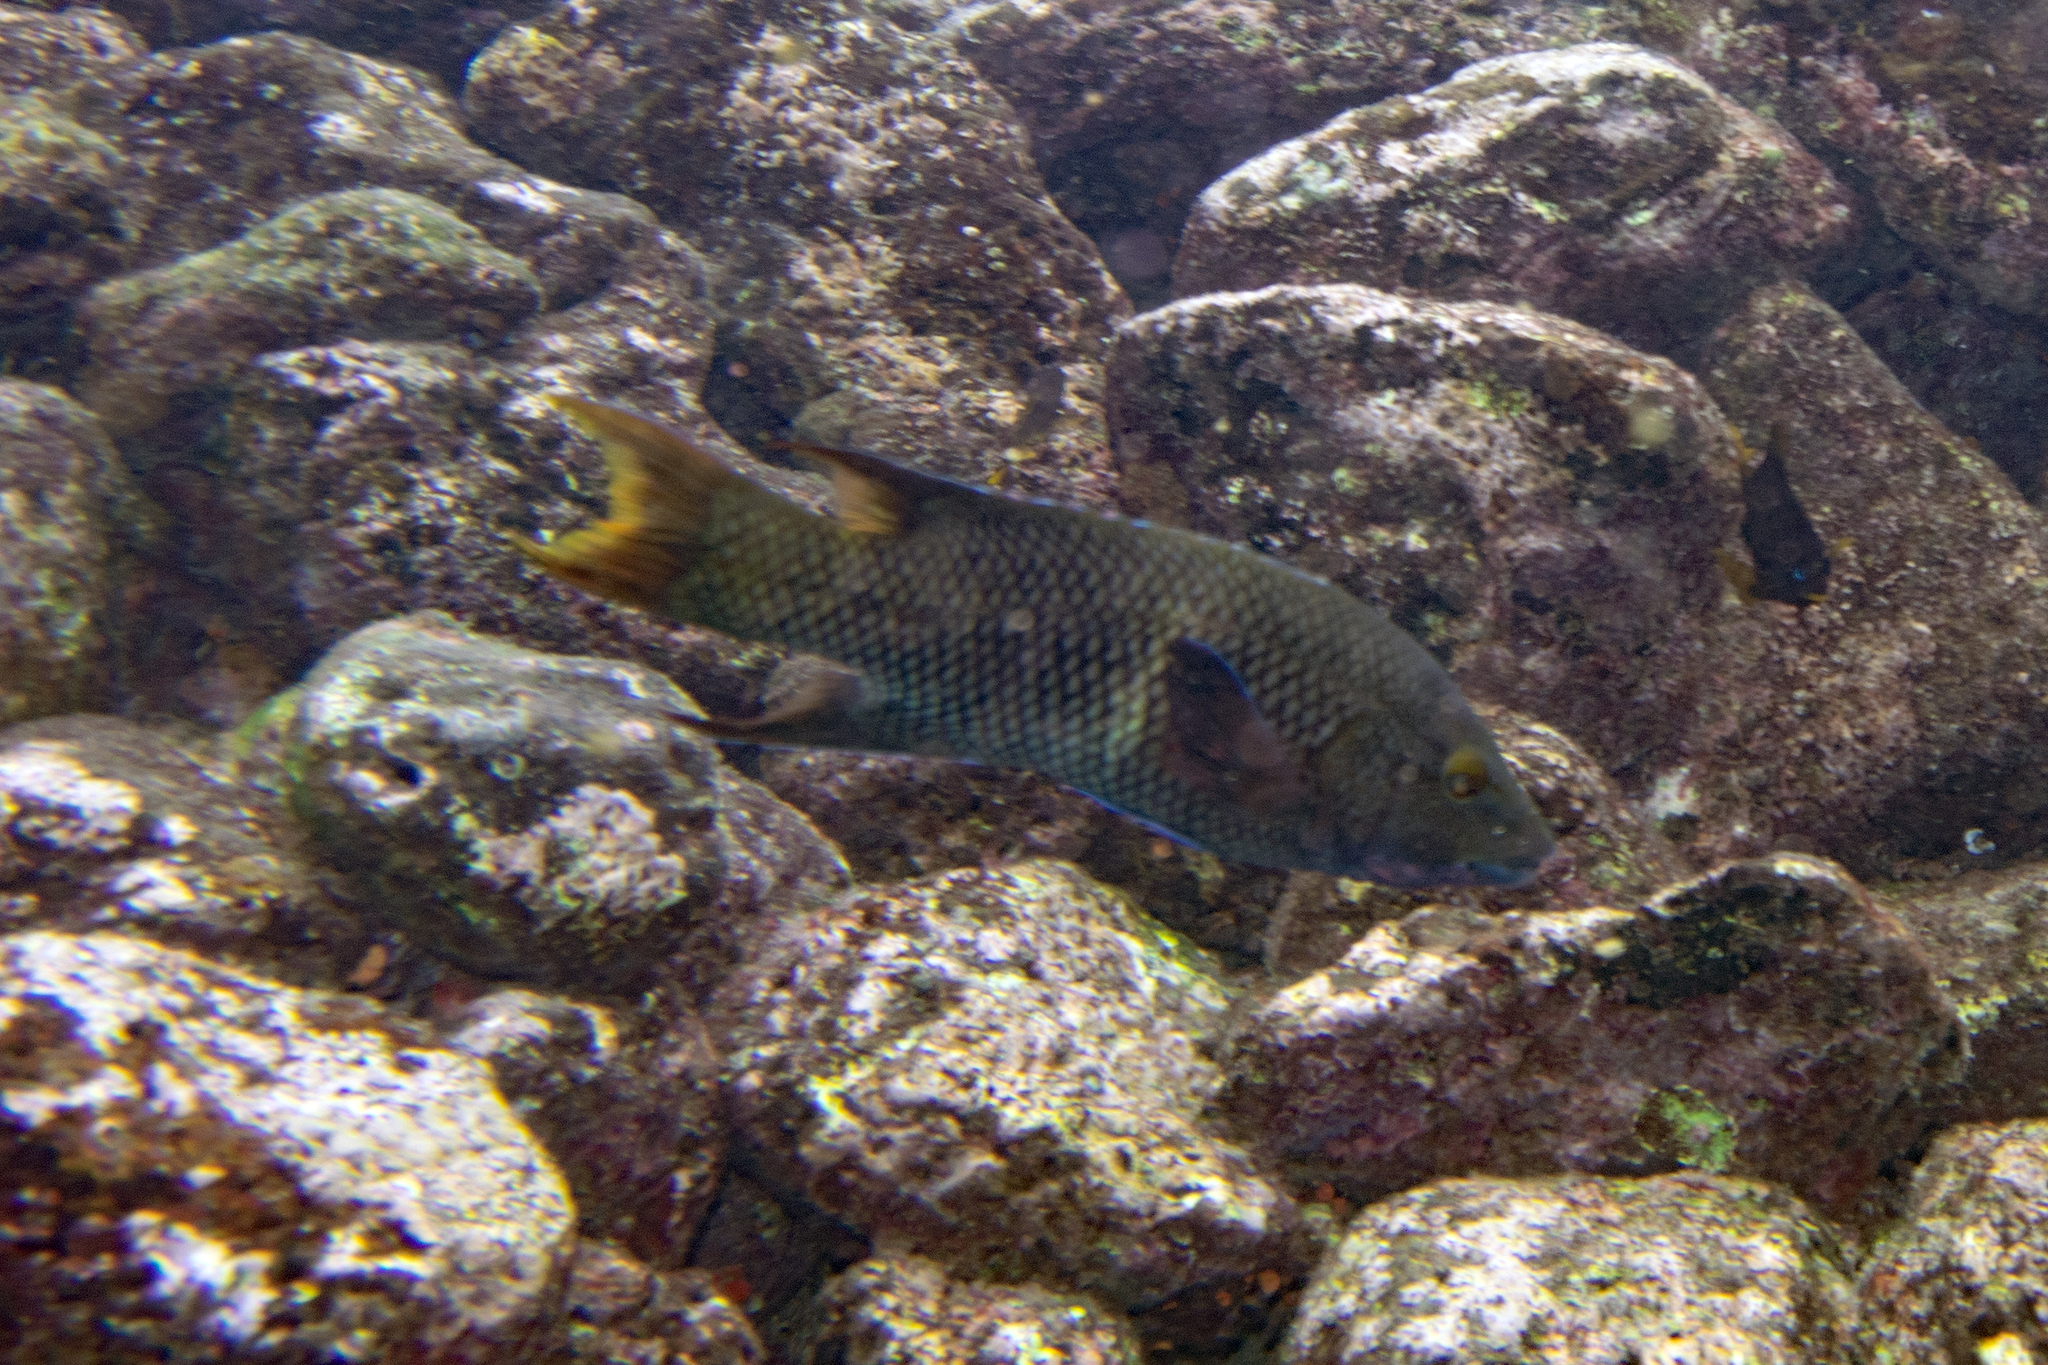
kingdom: Animalia
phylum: Chordata
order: Perciformes
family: Labridae
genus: Bodianus
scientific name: Bodianus diplotaenia
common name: Mexican hogfish
